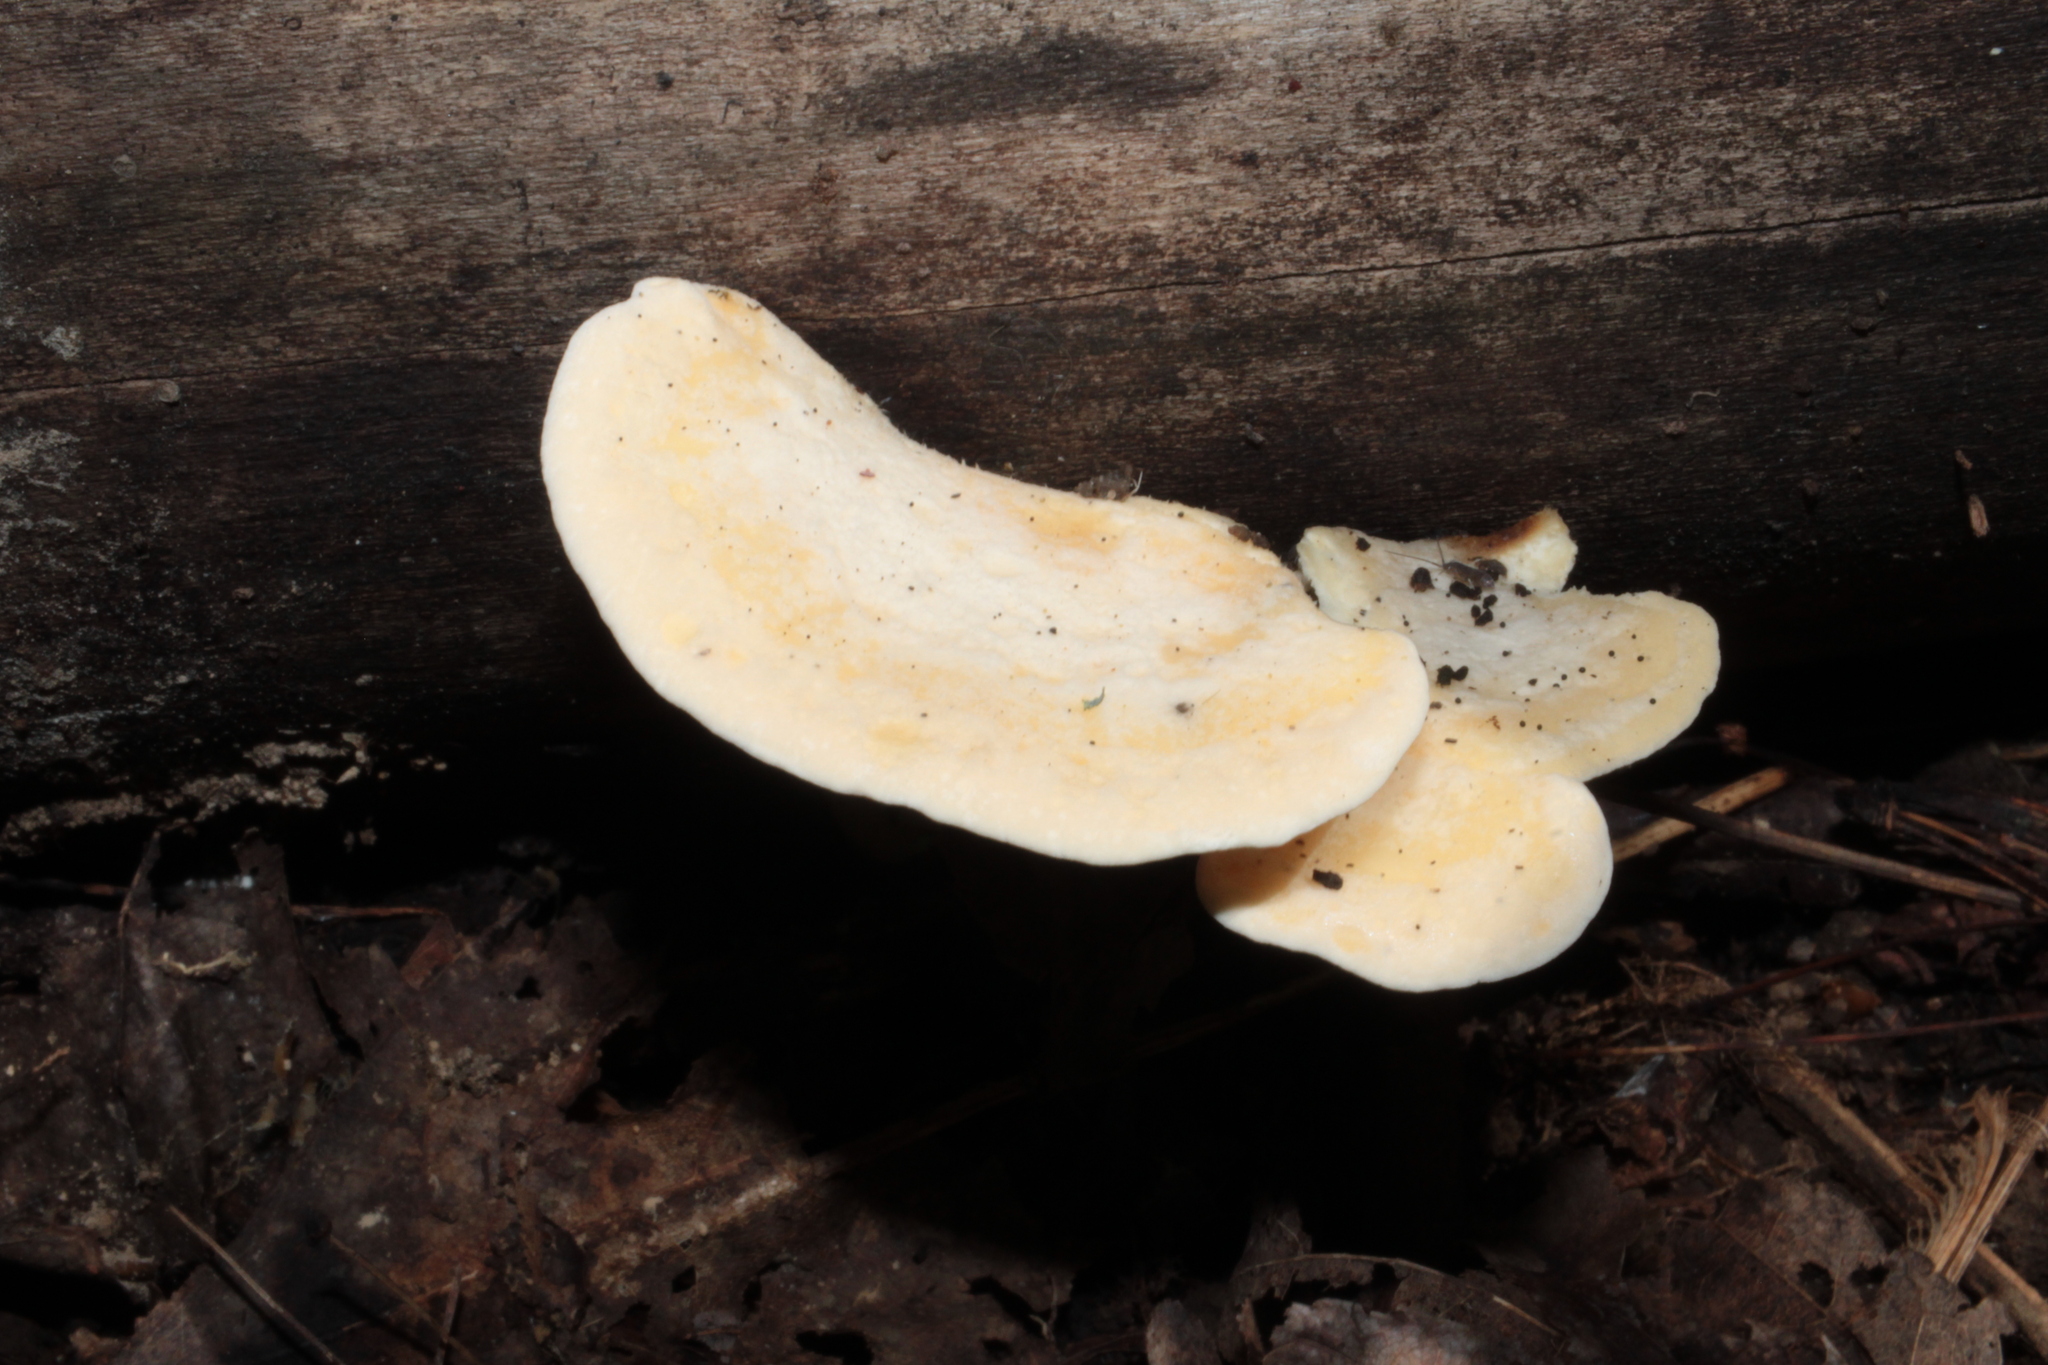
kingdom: Fungi
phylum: Basidiomycota
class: Agaricomycetes
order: Polyporales
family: Steccherinaceae
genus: Loweomyces
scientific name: Loweomyces fractipes
